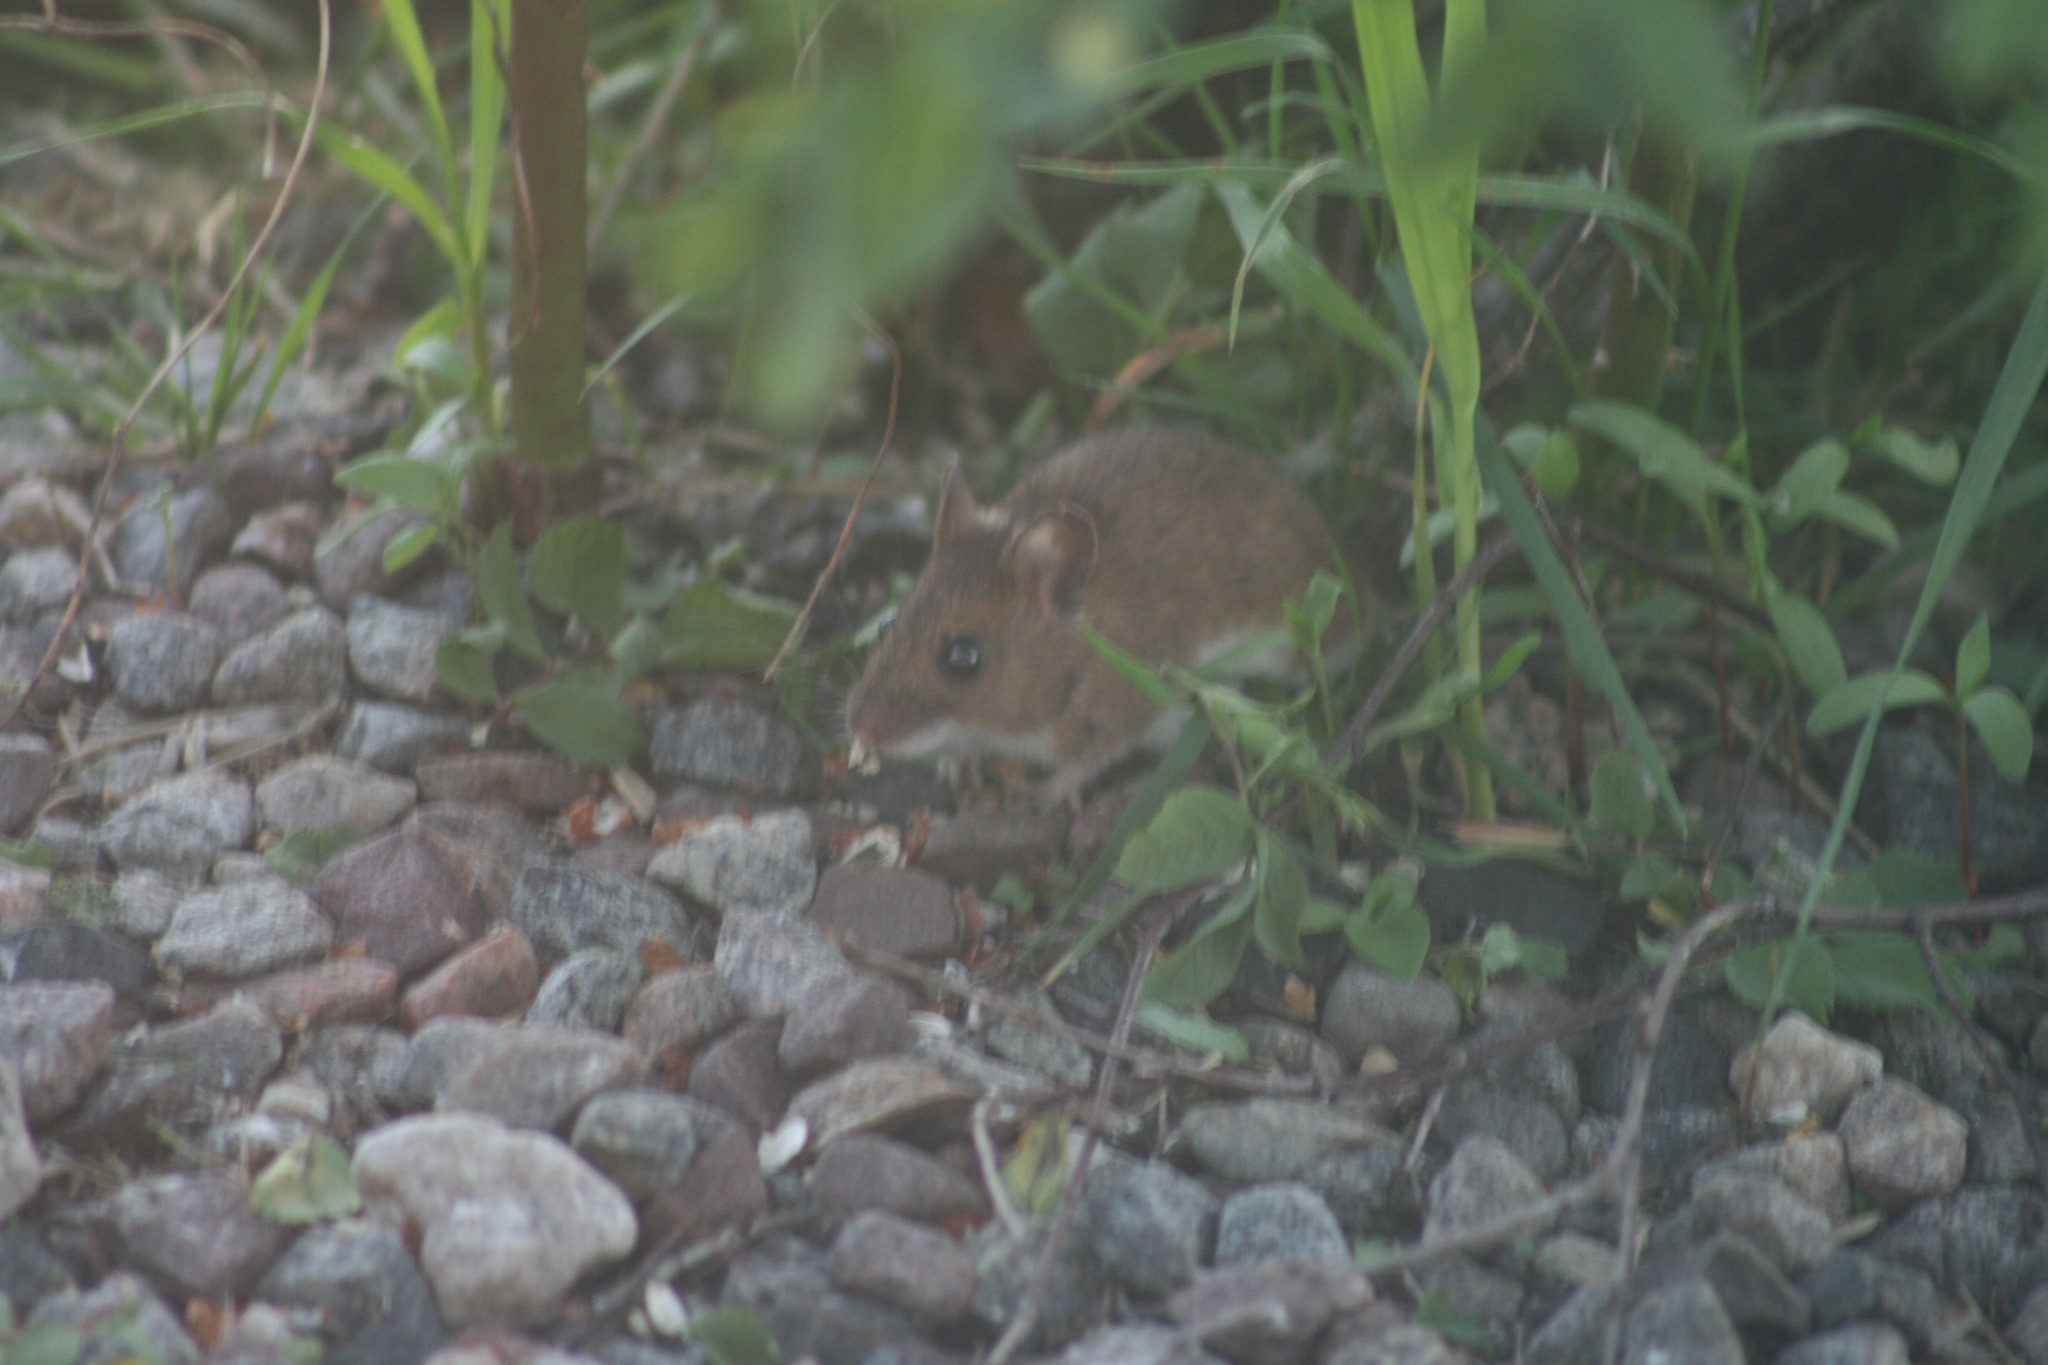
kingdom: Animalia
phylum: Chordata
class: Mammalia
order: Rodentia
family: Muridae
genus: Apodemus
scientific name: Apodemus sylvaticus
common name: Wood mouse
